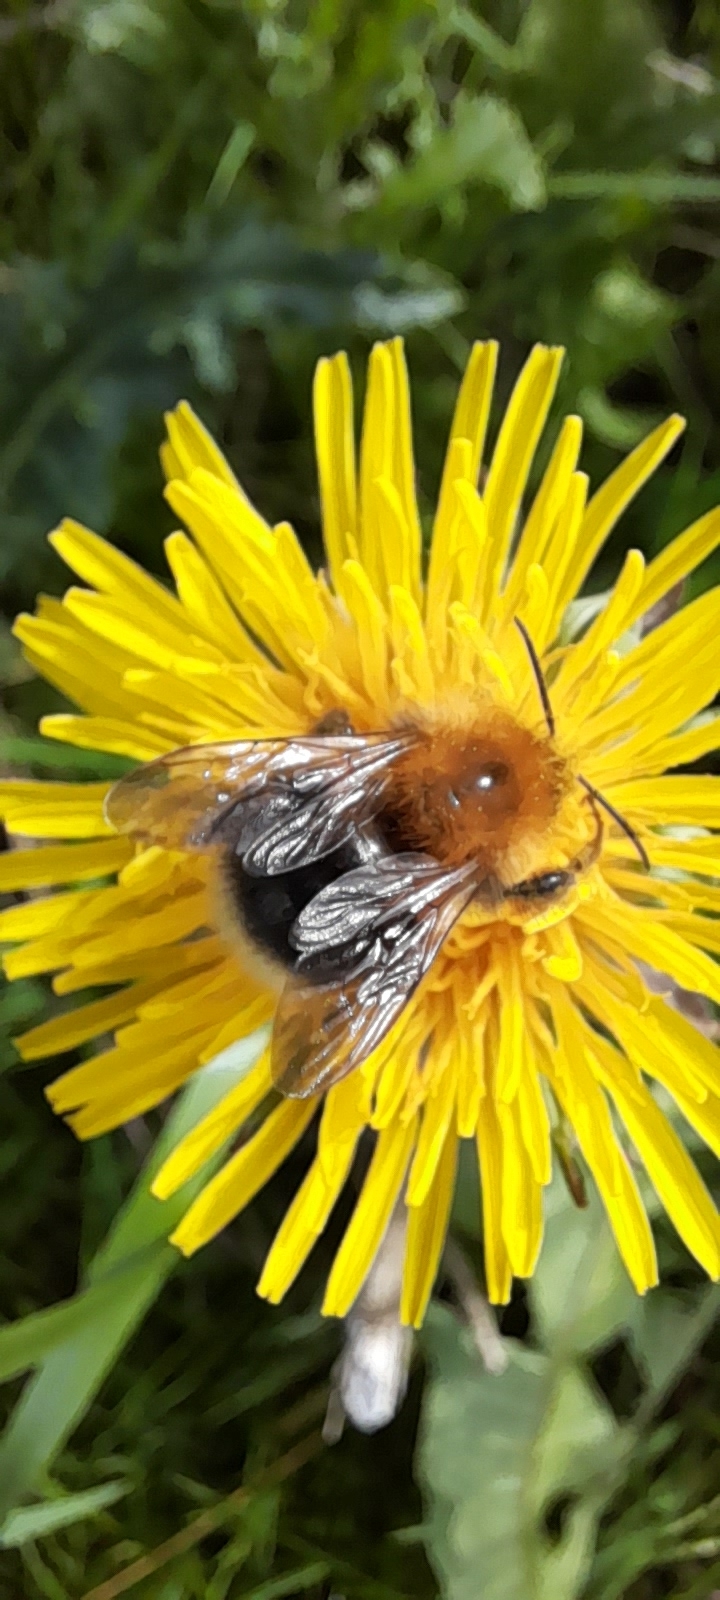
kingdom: Animalia
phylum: Arthropoda
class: Insecta
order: Hymenoptera
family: Apidae
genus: Bombus
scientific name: Bombus hypnorum
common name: New garden bumblebee
